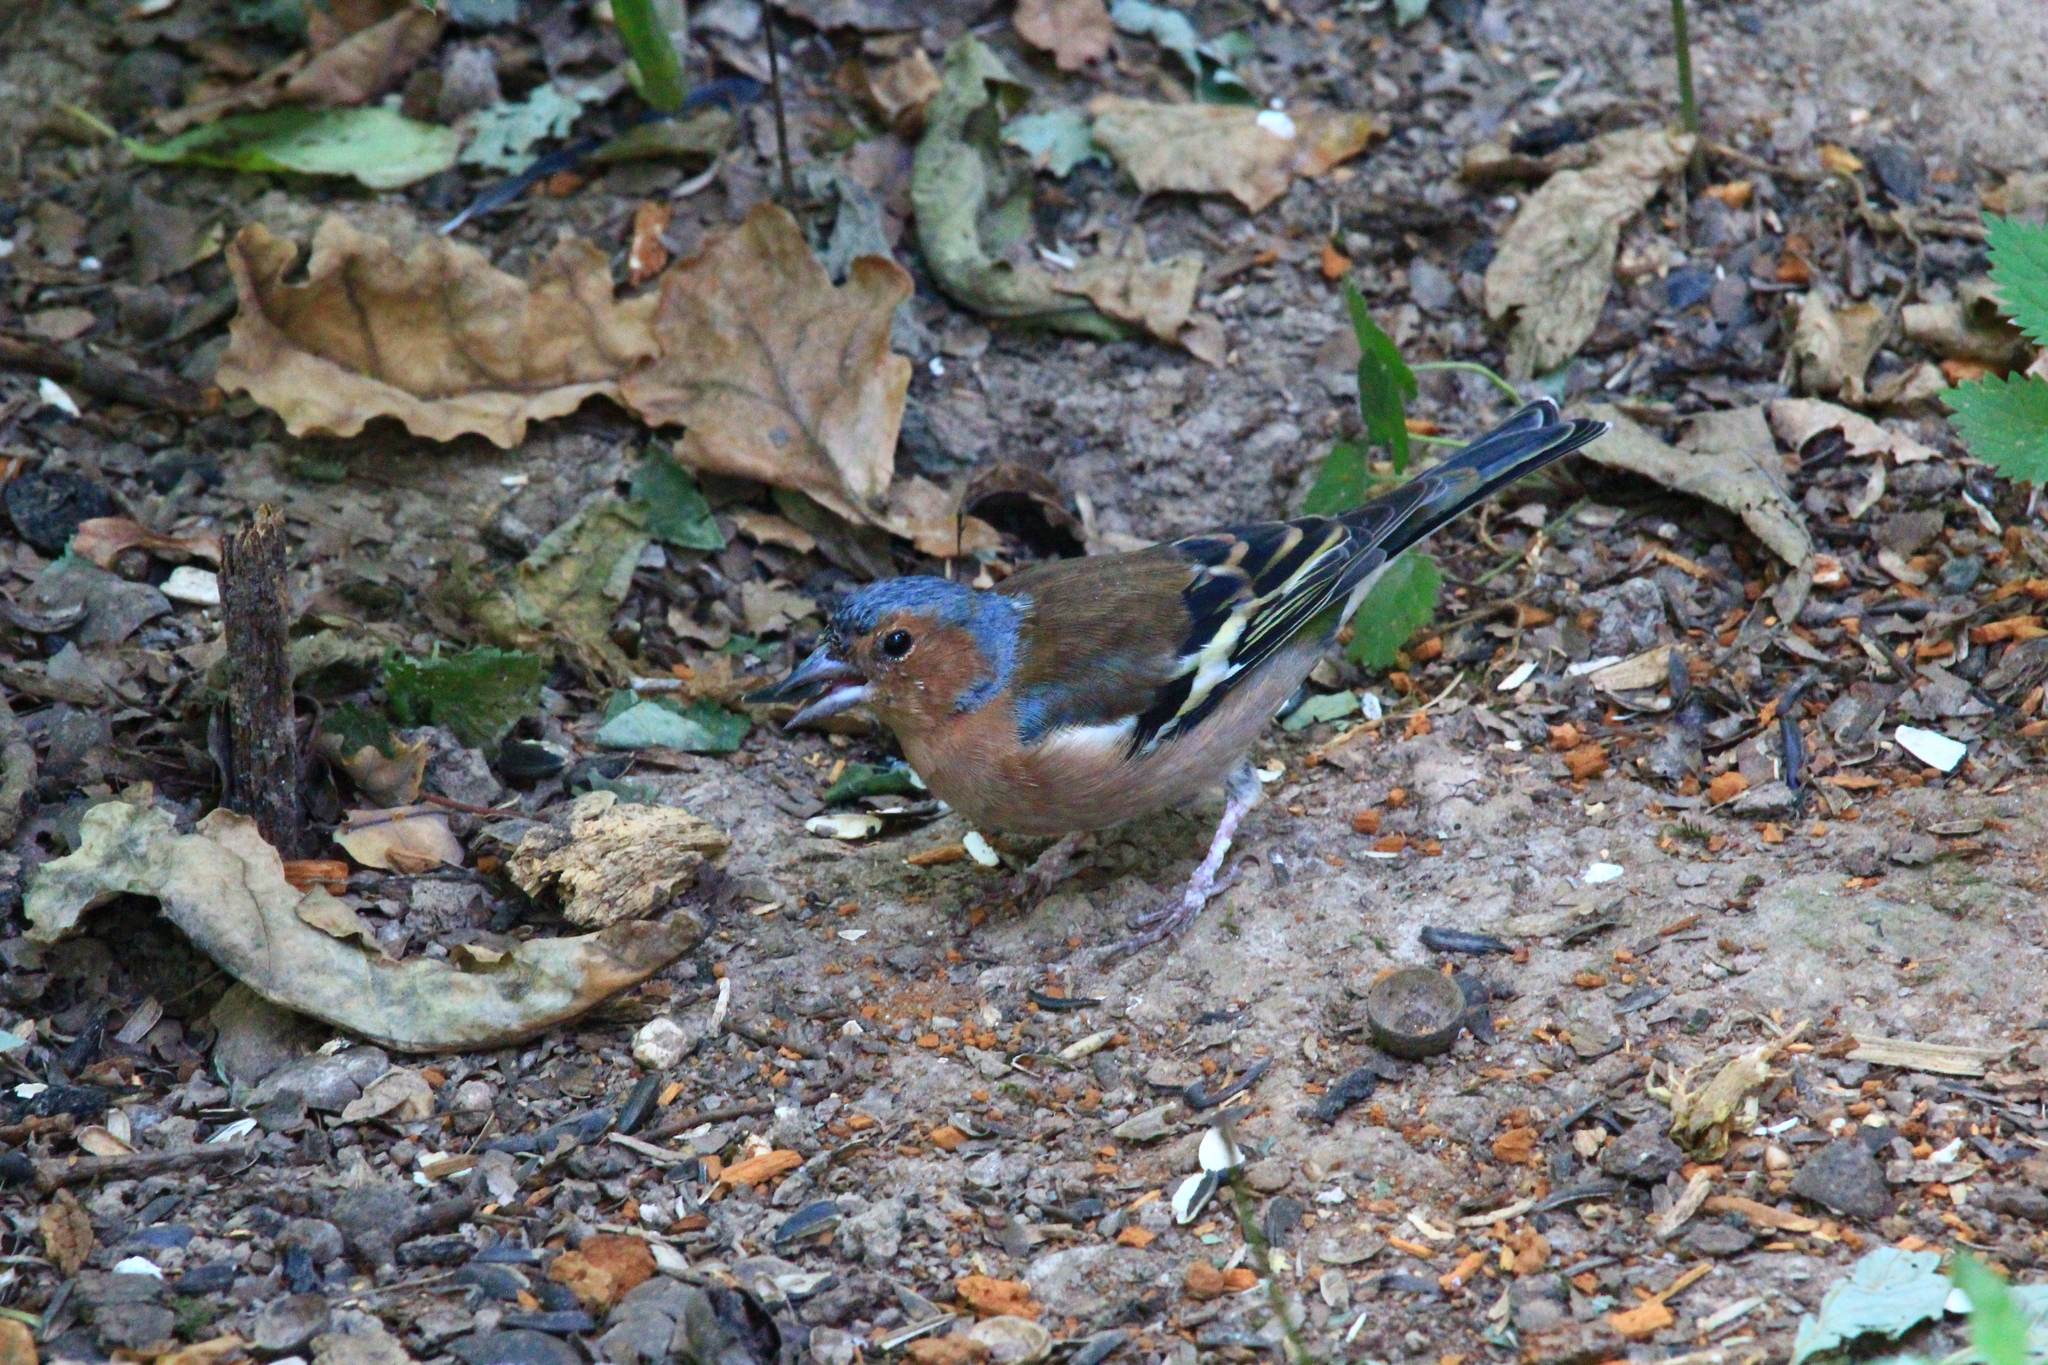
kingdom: Animalia
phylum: Chordata
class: Aves
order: Passeriformes
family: Fringillidae
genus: Fringilla
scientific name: Fringilla coelebs
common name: Common chaffinch
